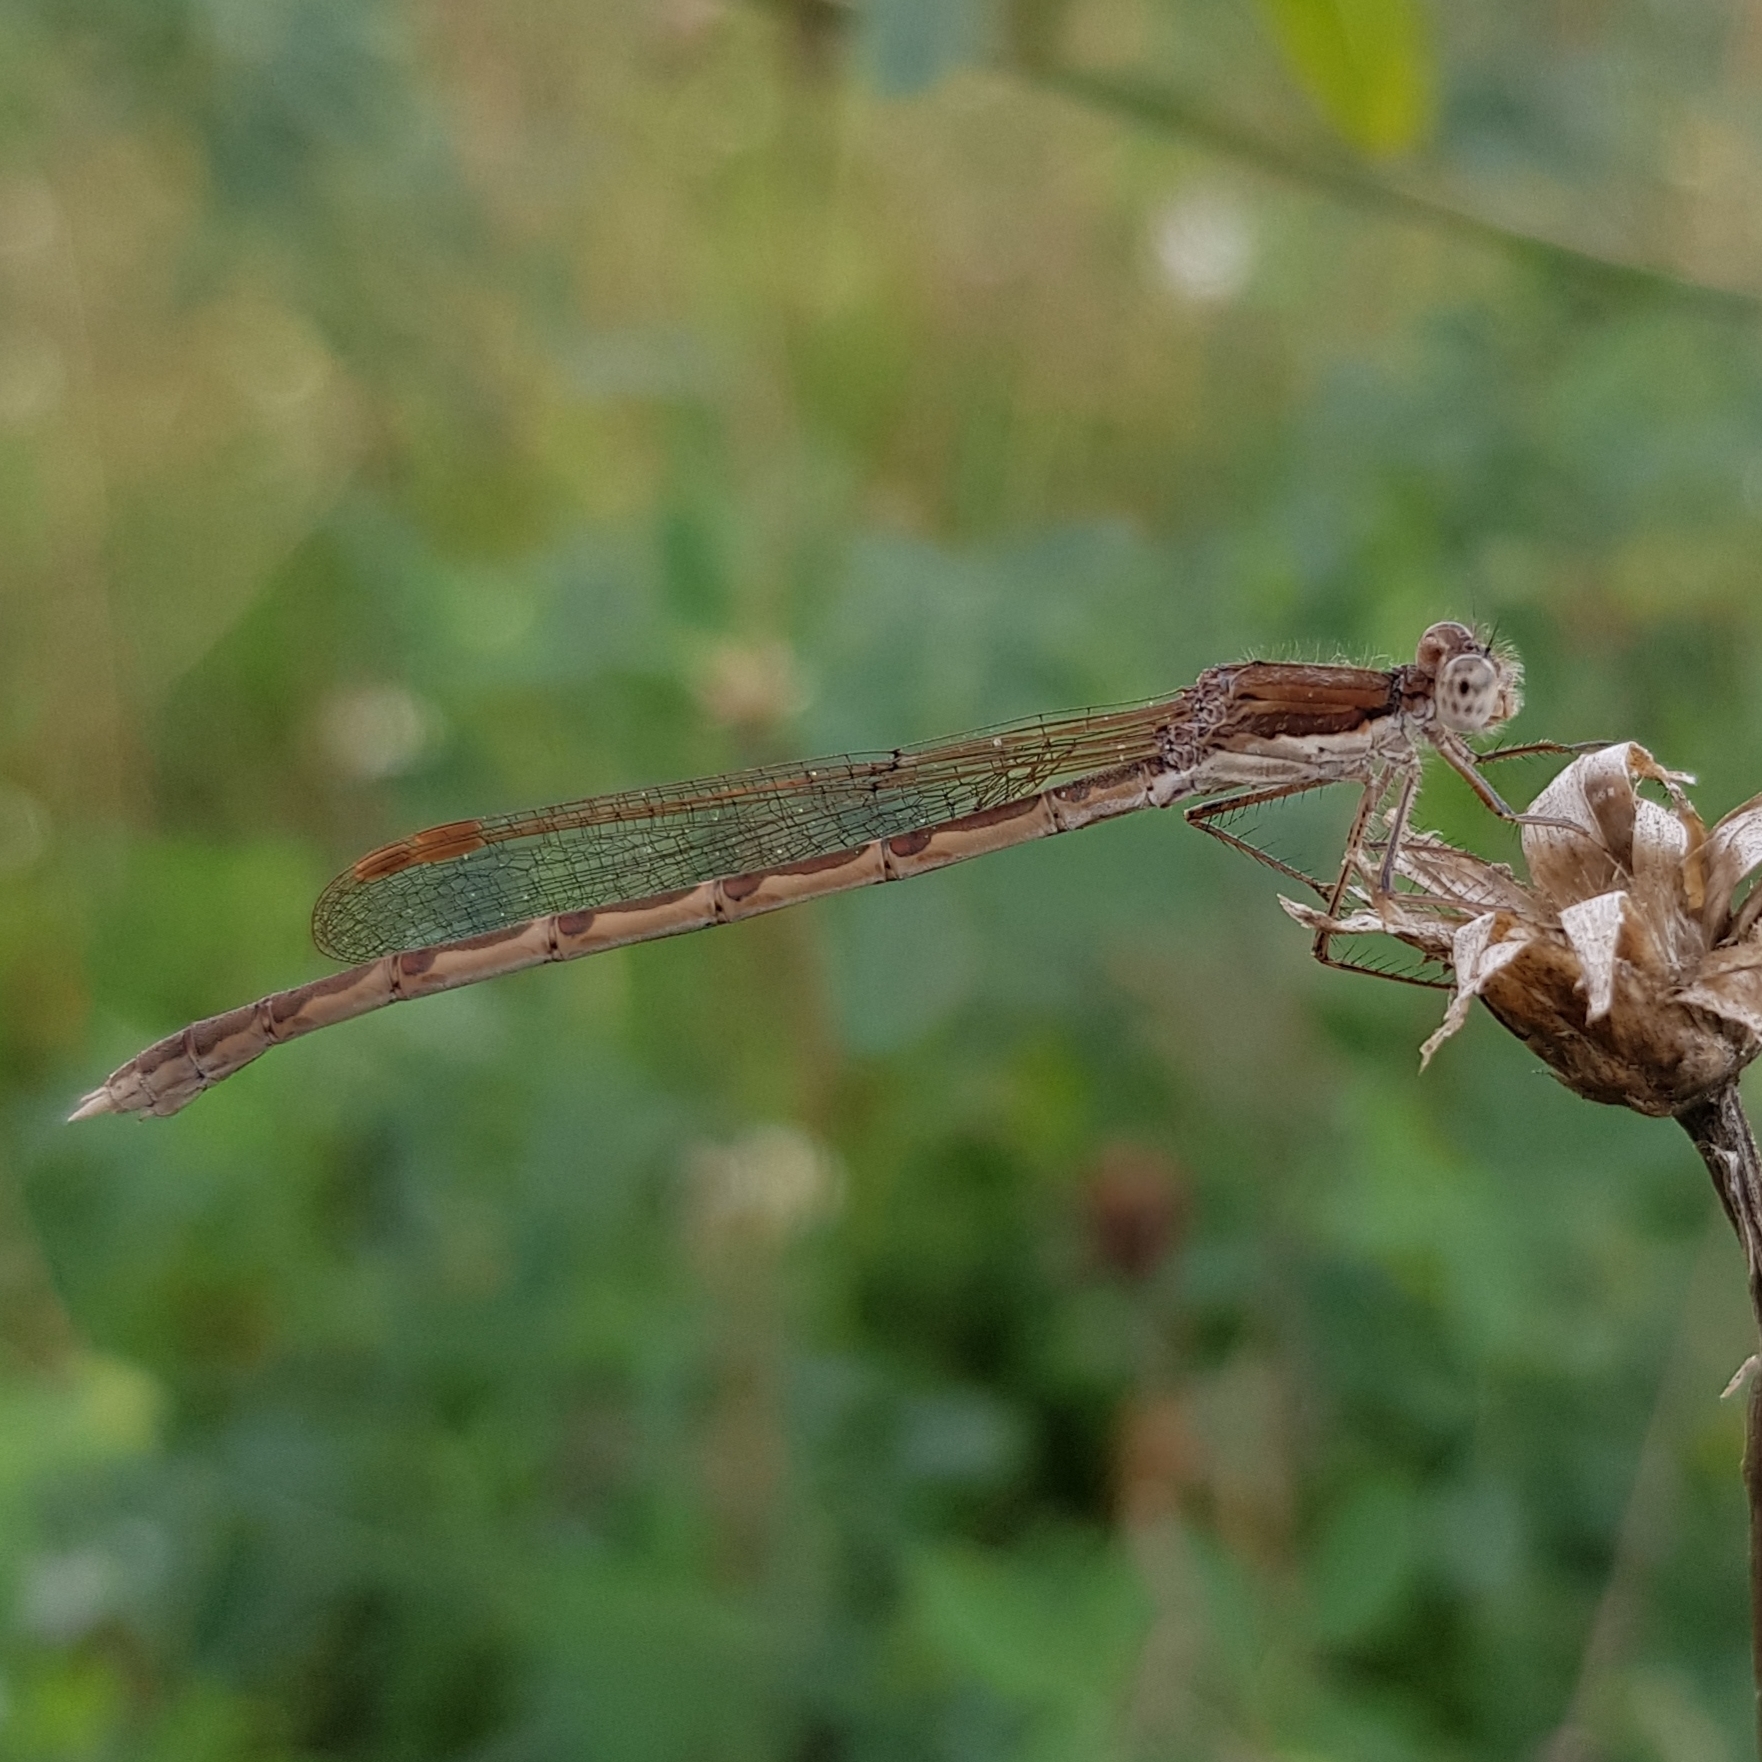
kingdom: Animalia
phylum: Arthropoda
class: Insecta
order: Odonata
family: Lestidae
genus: Sympecma
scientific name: Sympecma fusca
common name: Common winter damsel
